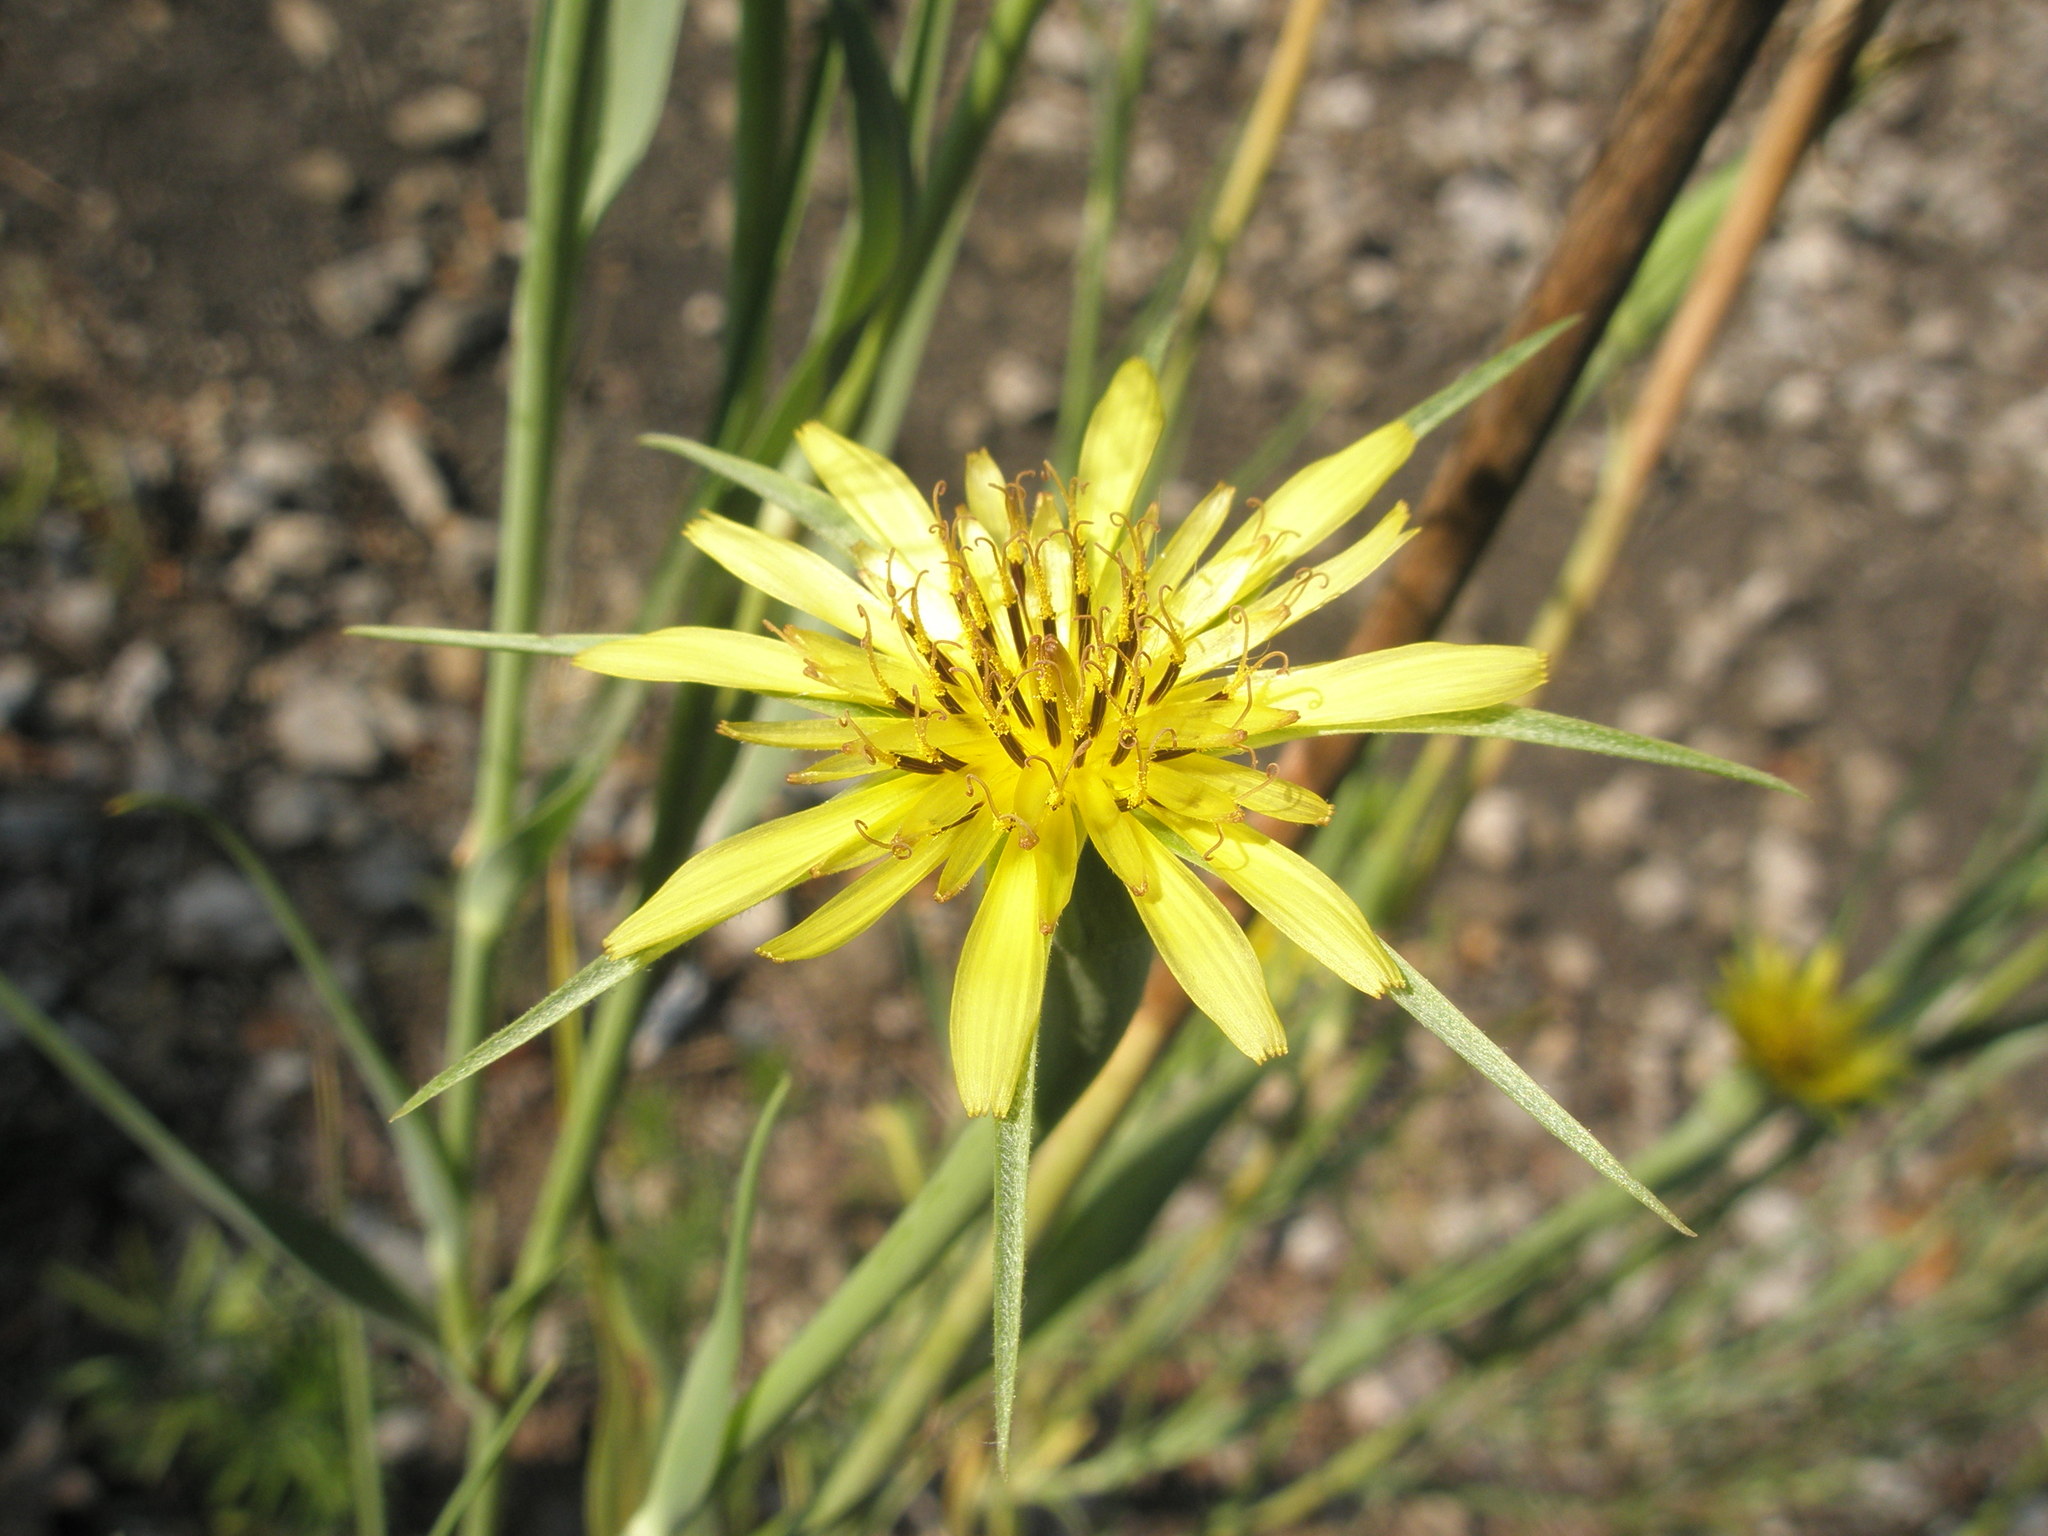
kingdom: Plantae
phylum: Tracheophyta
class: Magnoliopsida
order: Asterales
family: Asteraceae
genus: Tragopogon
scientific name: Tragopogon dubius
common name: Yellow salsify
